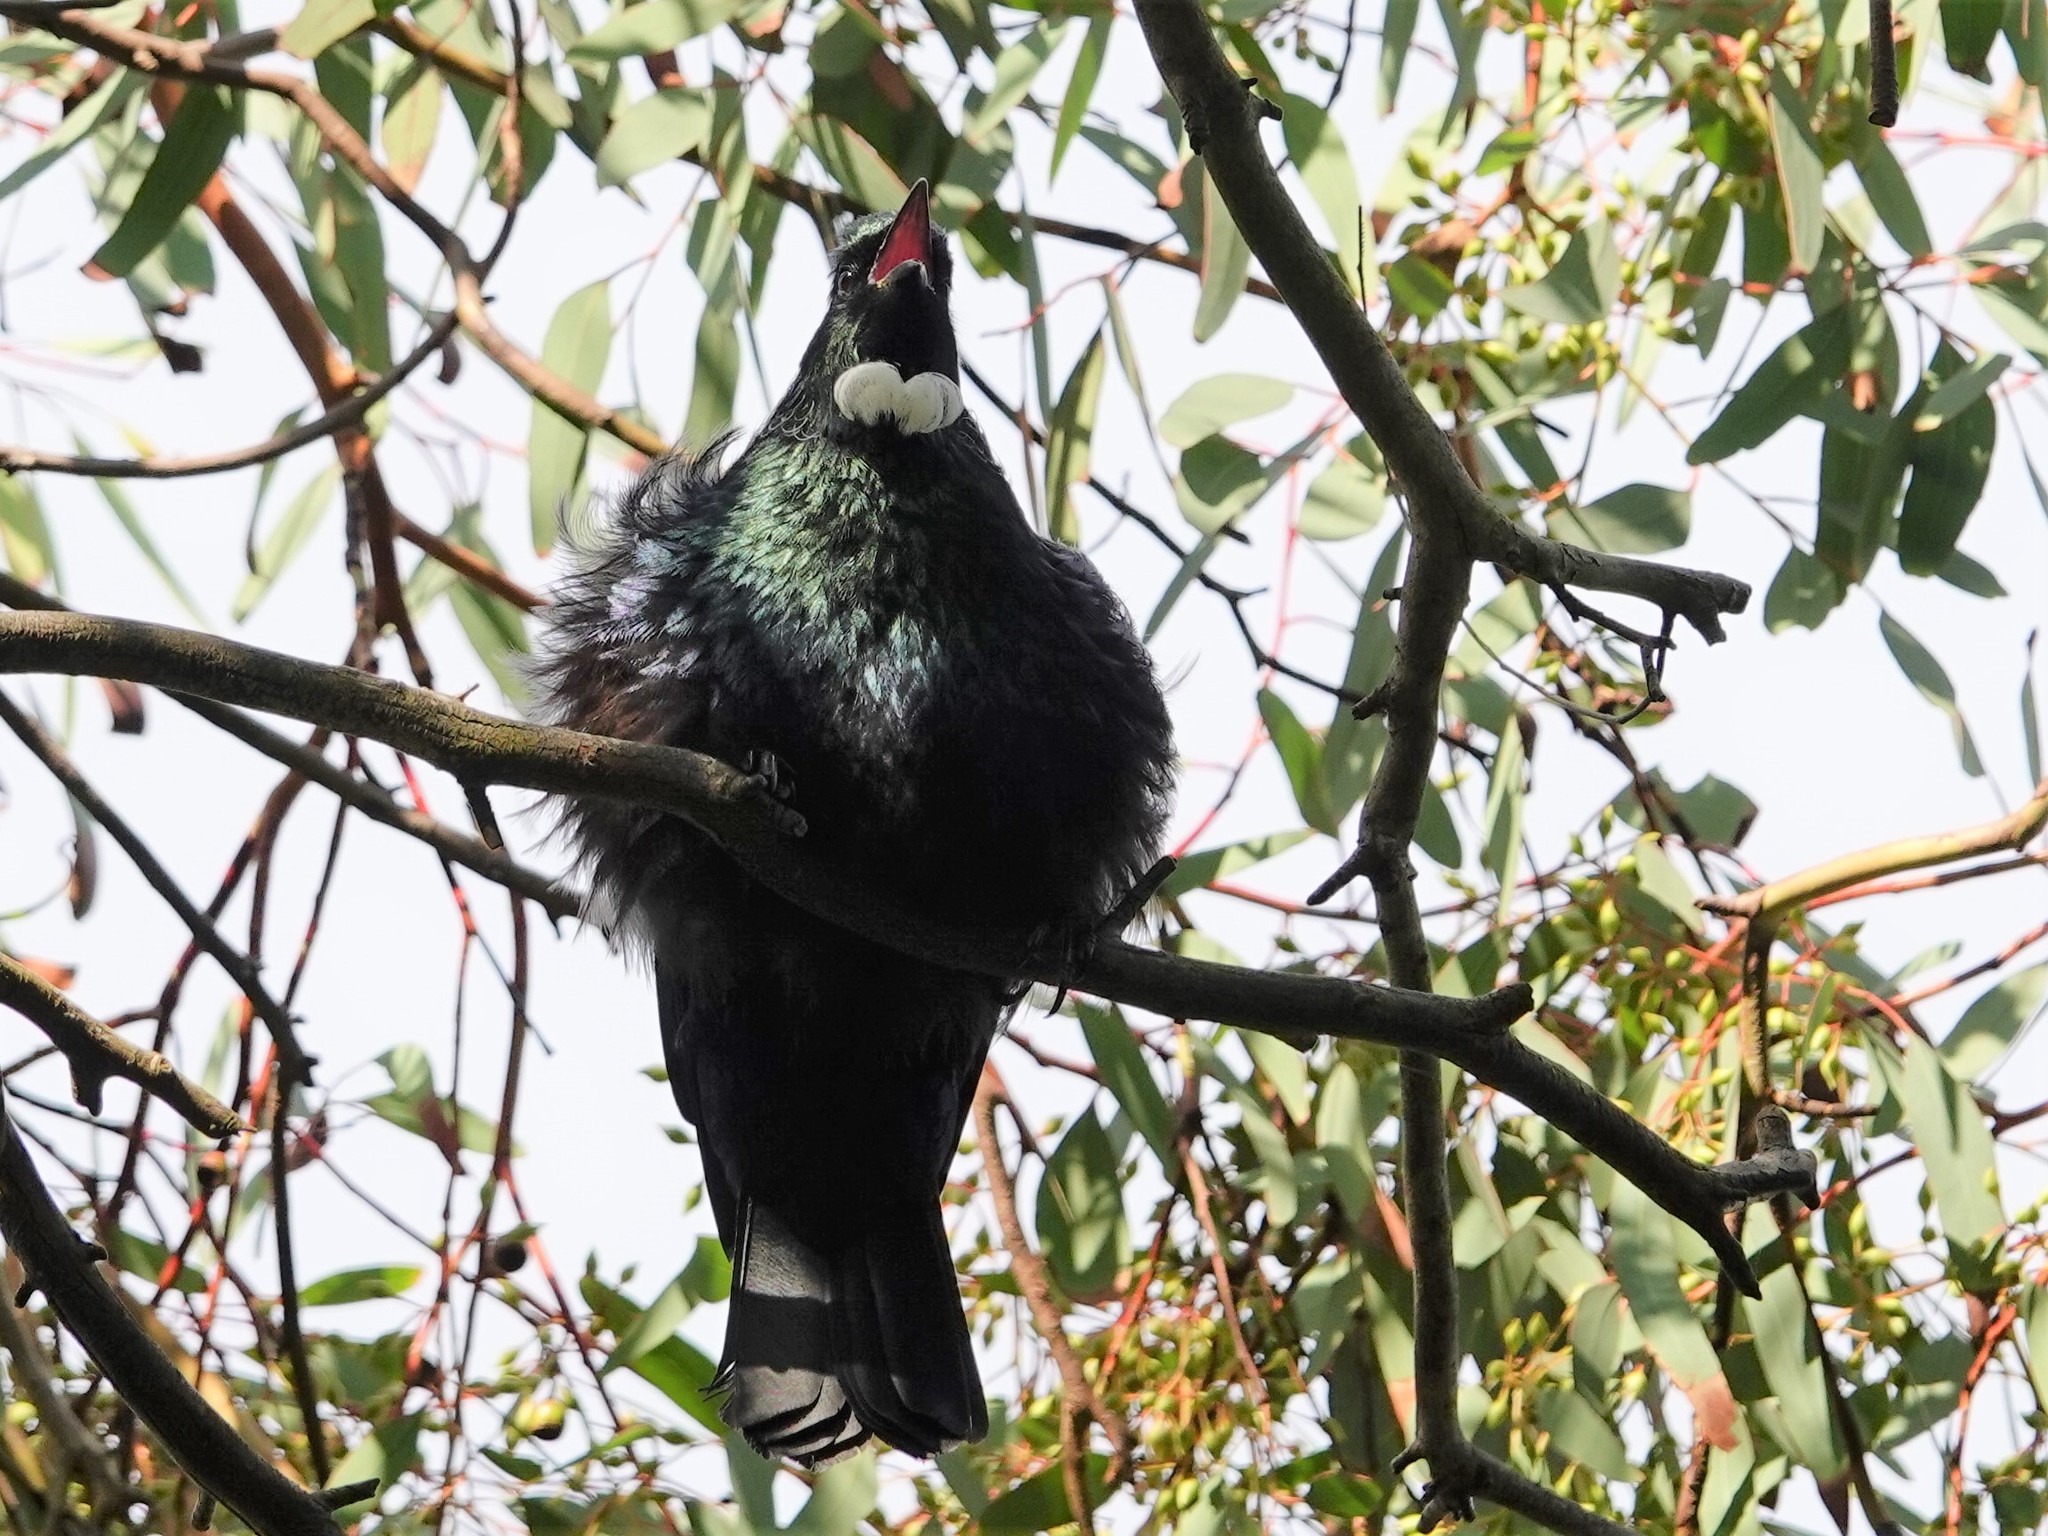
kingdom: Animalia
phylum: Chordata
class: Aves
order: Passeriformes
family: Meliphagidae
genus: Prosthemadera
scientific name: Prosthemadera novaeseelandiae
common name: Tui
